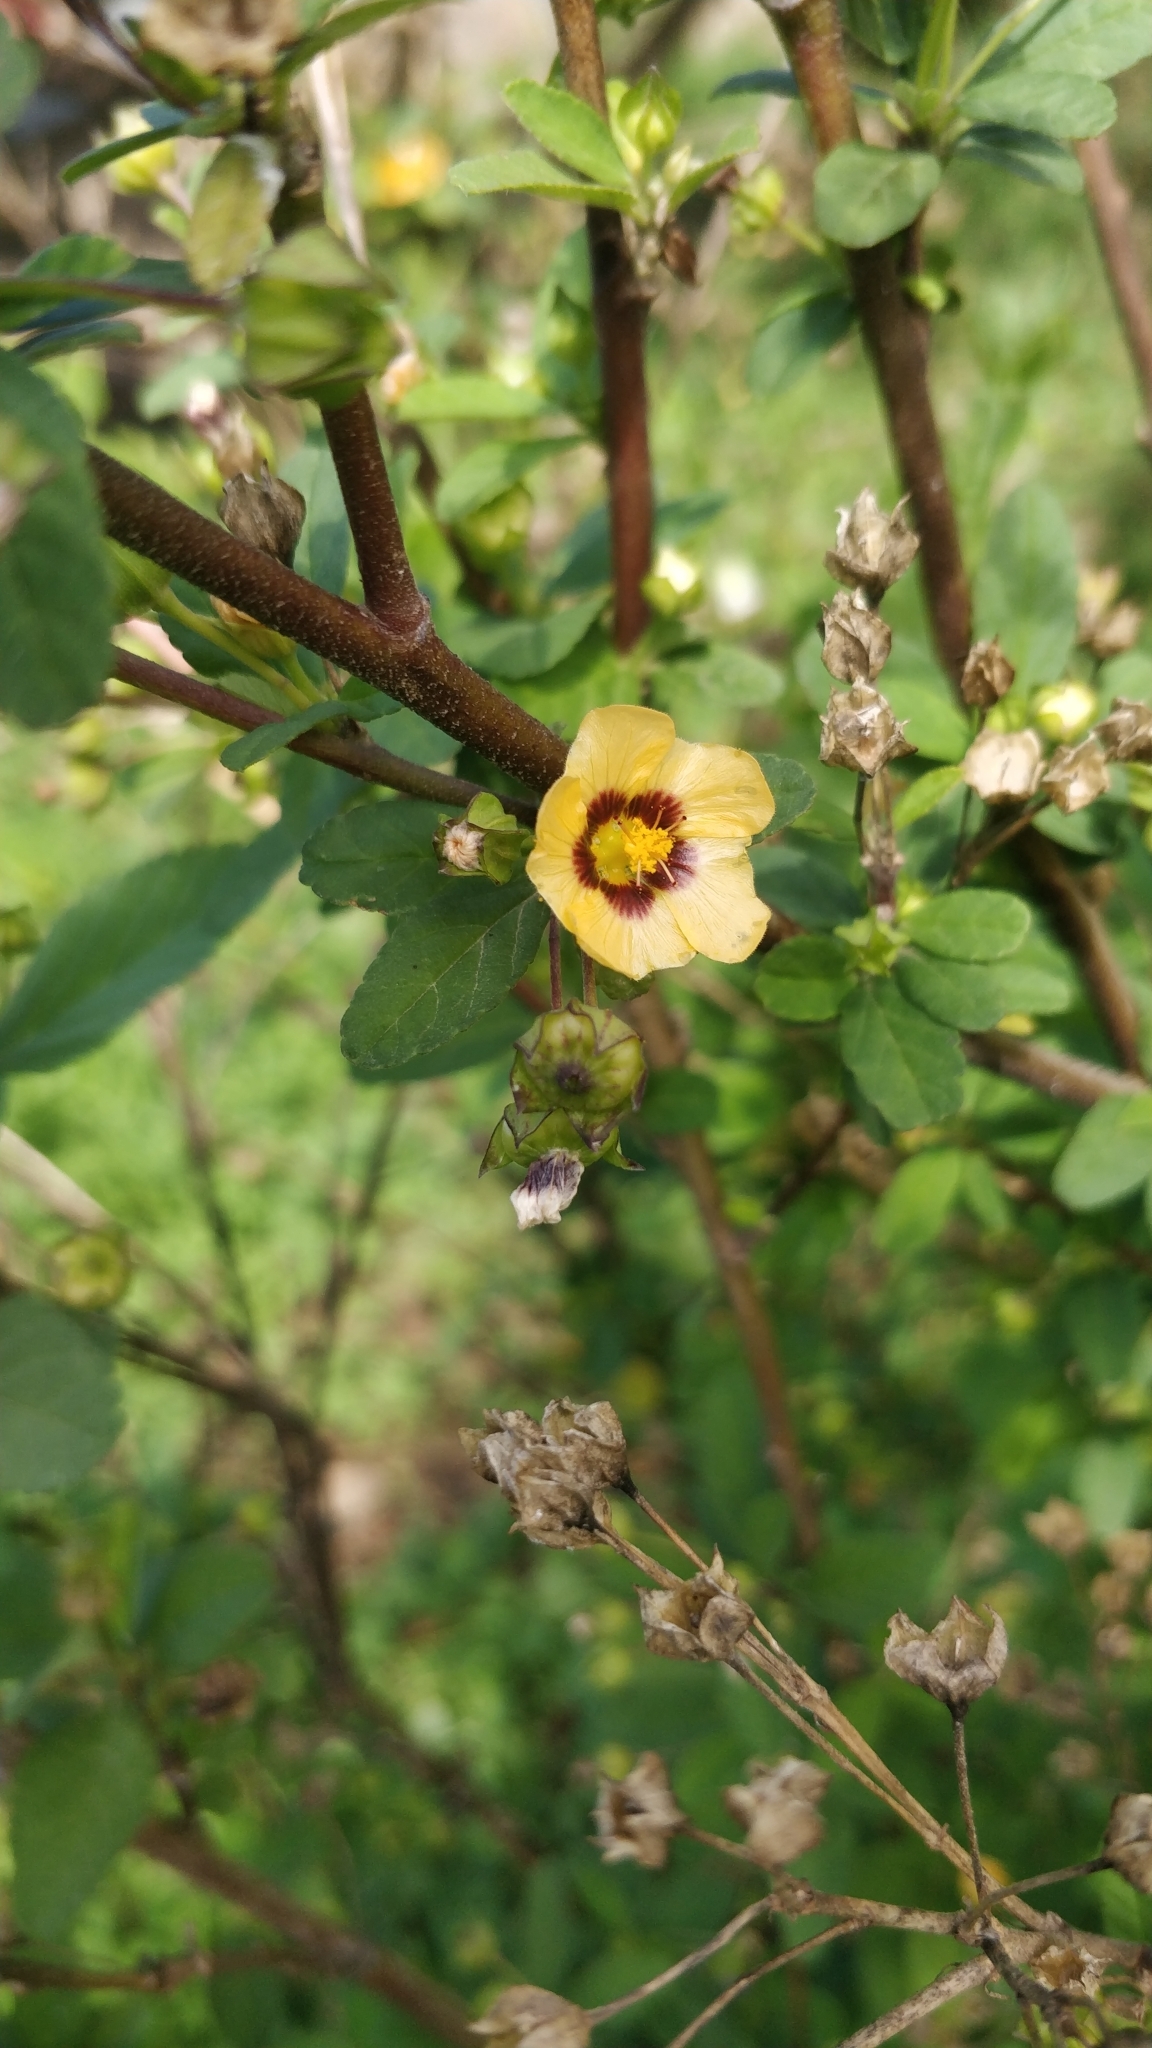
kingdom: Plantae
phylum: Tracheophyta
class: Magnoliopsida
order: Malvales
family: Malvaceae
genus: Sida
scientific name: Sida rhombifolia
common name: Queensland-hemp
